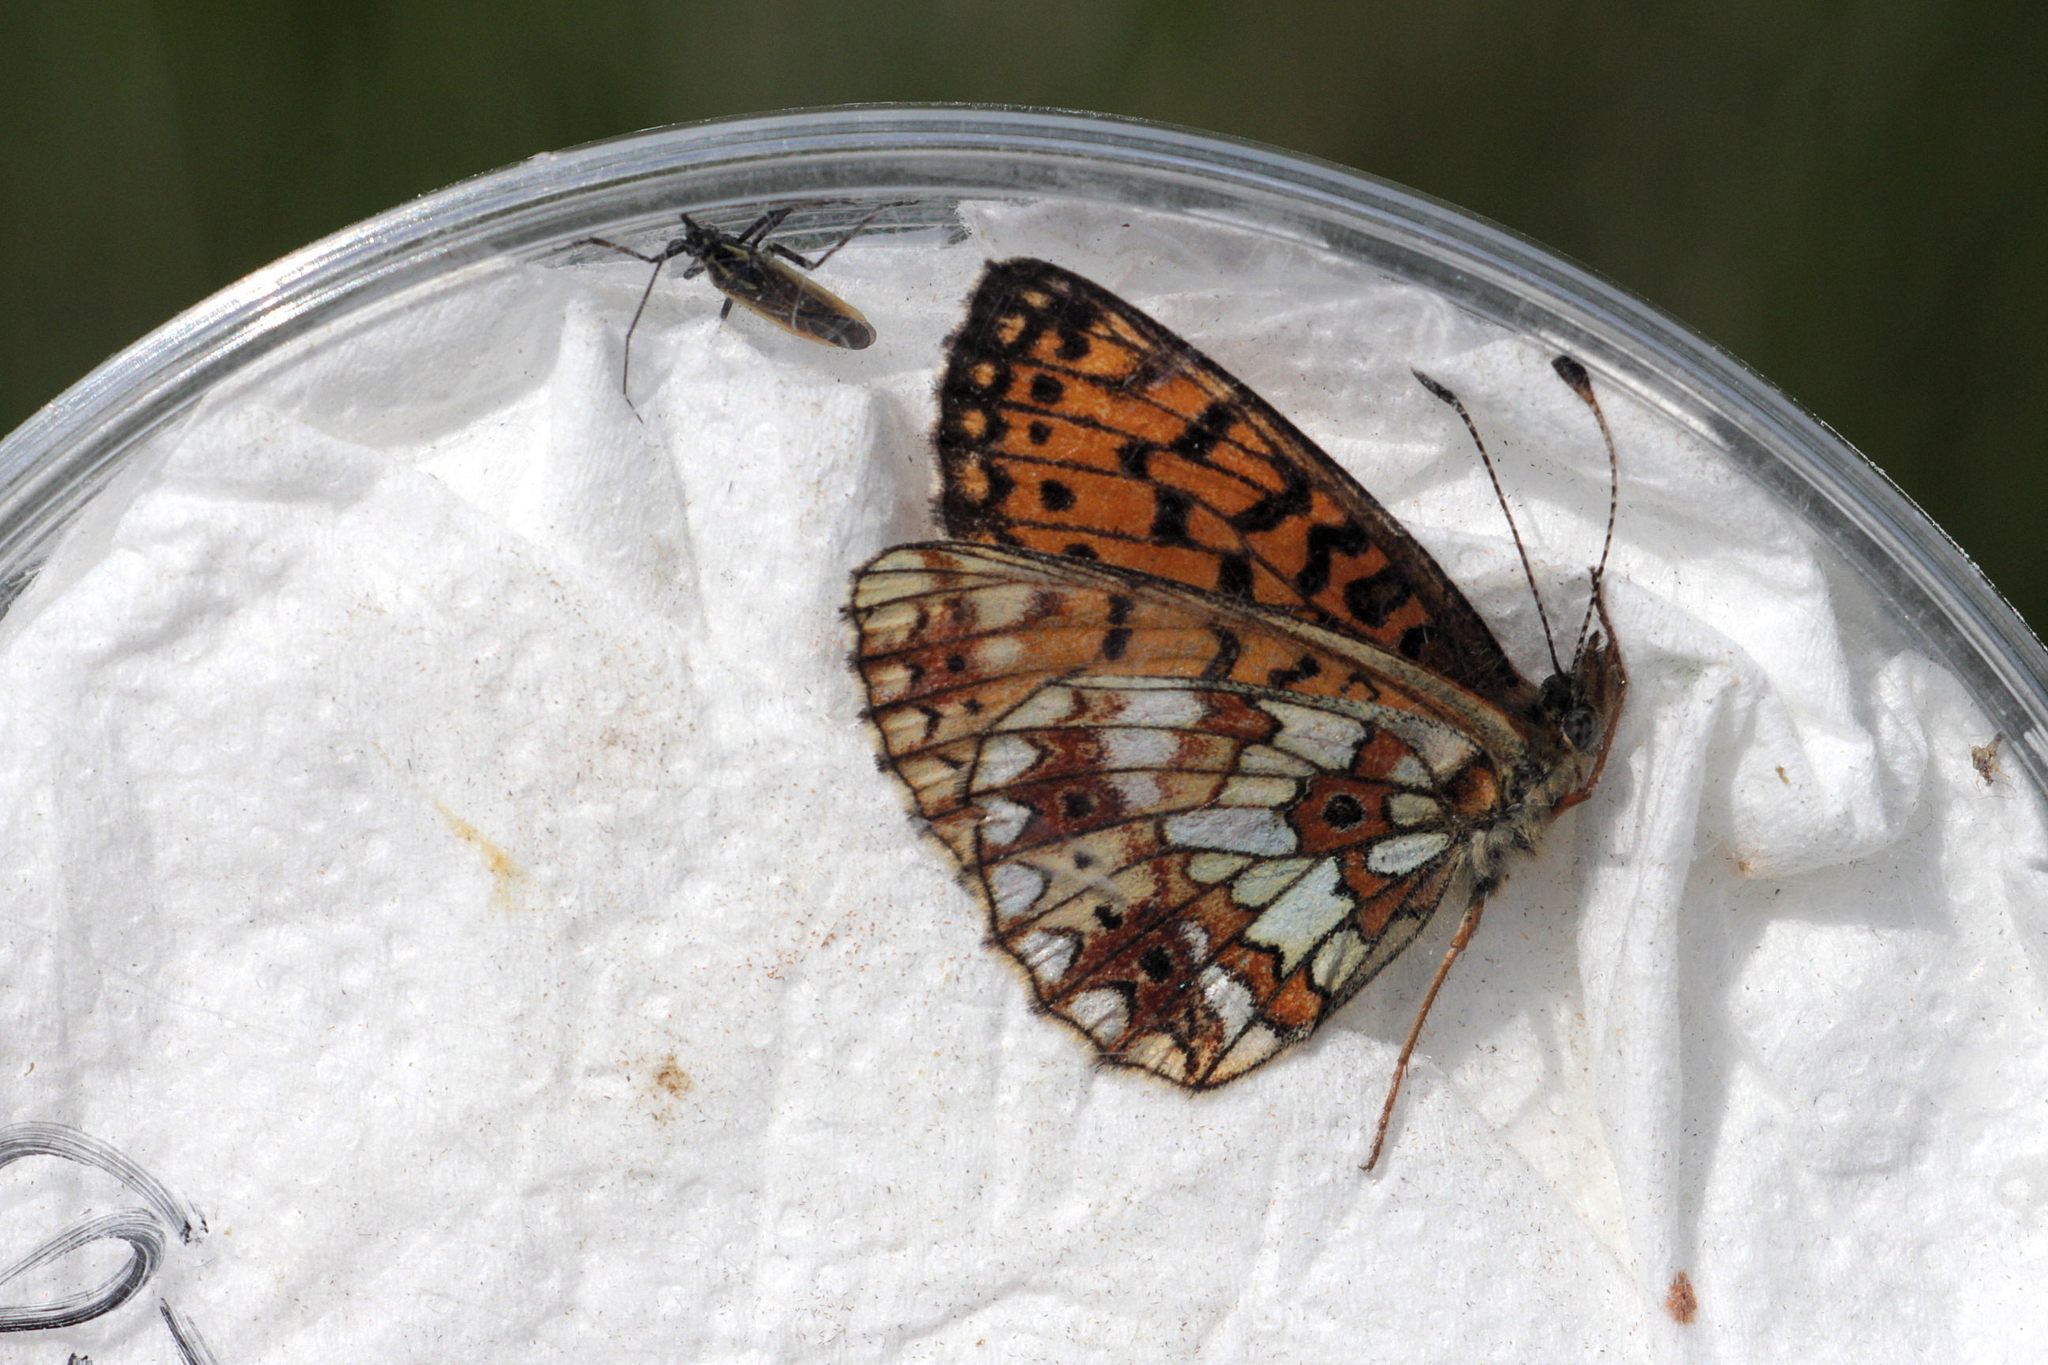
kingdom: Animalia
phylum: Arthropoda
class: Insecta
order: Lepidoptera
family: Nymphalidae
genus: Boloria
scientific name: Boloria selene
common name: Small pearl-bordered fritillary
